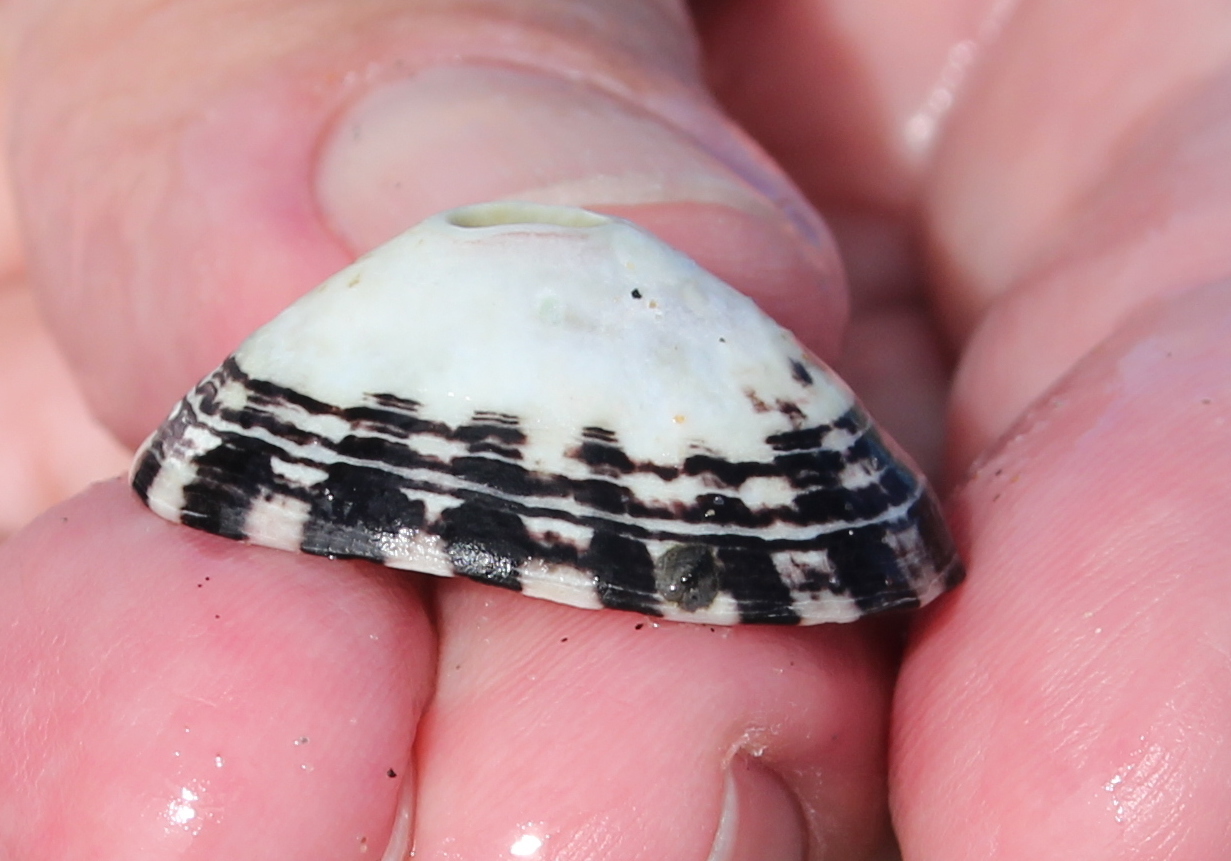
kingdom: Animalia
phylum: Mollusca
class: Gastropoda
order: Lepetellida
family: Fissurellidae
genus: Fissurella
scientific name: Fissurella volcano
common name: Volcano keyhole limpet
